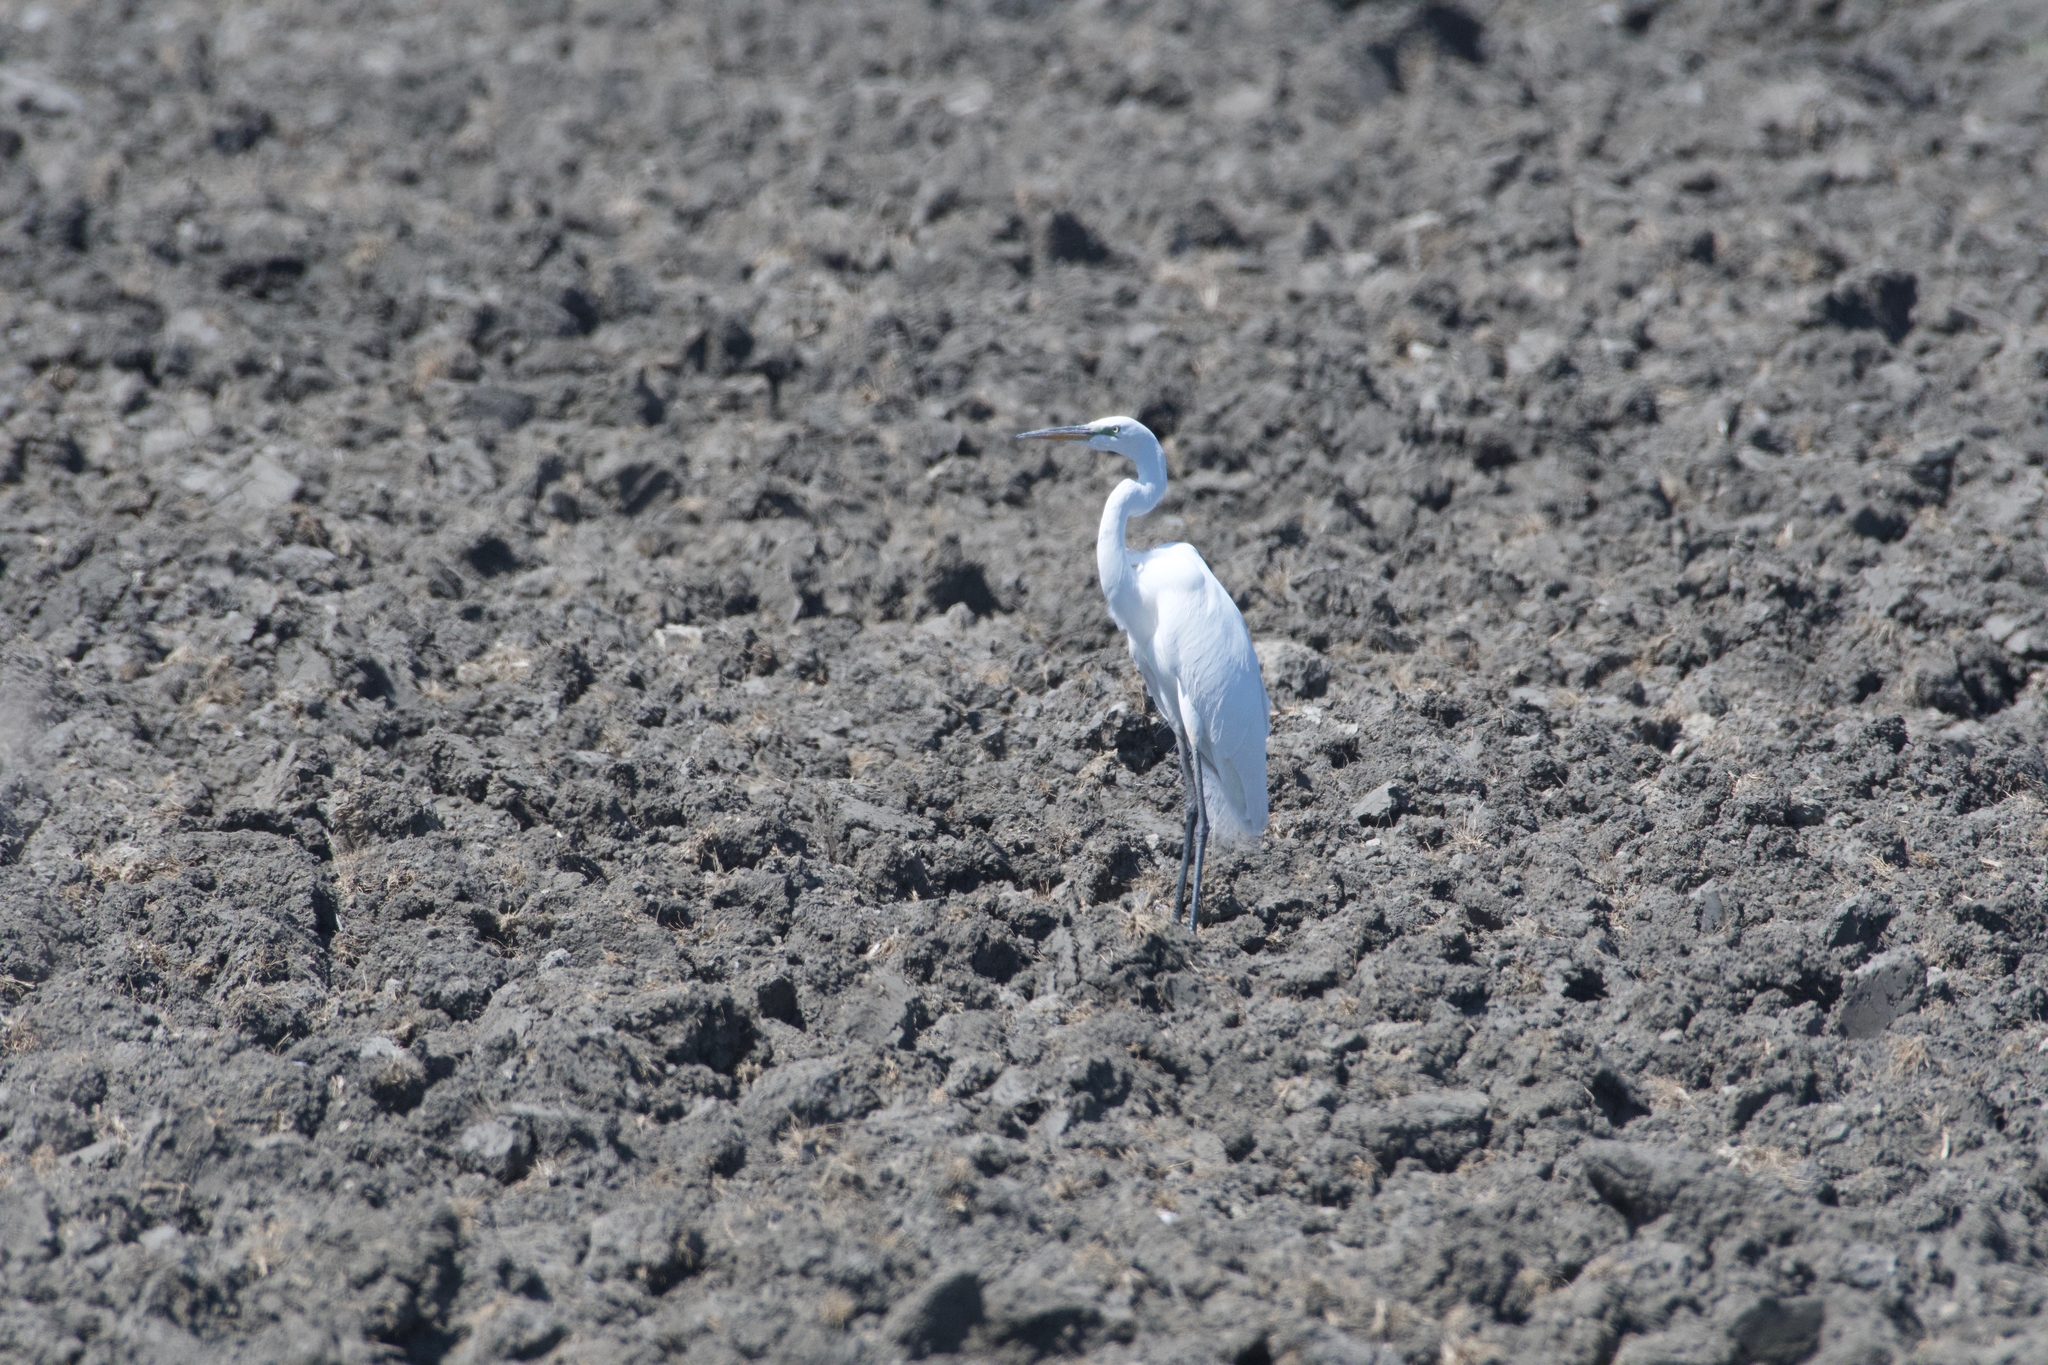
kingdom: Animalia
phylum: Chordata
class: Aves
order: Pelecaniformes
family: Ardeidae
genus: Egretta
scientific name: Egretta thula
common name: Snowy egret
